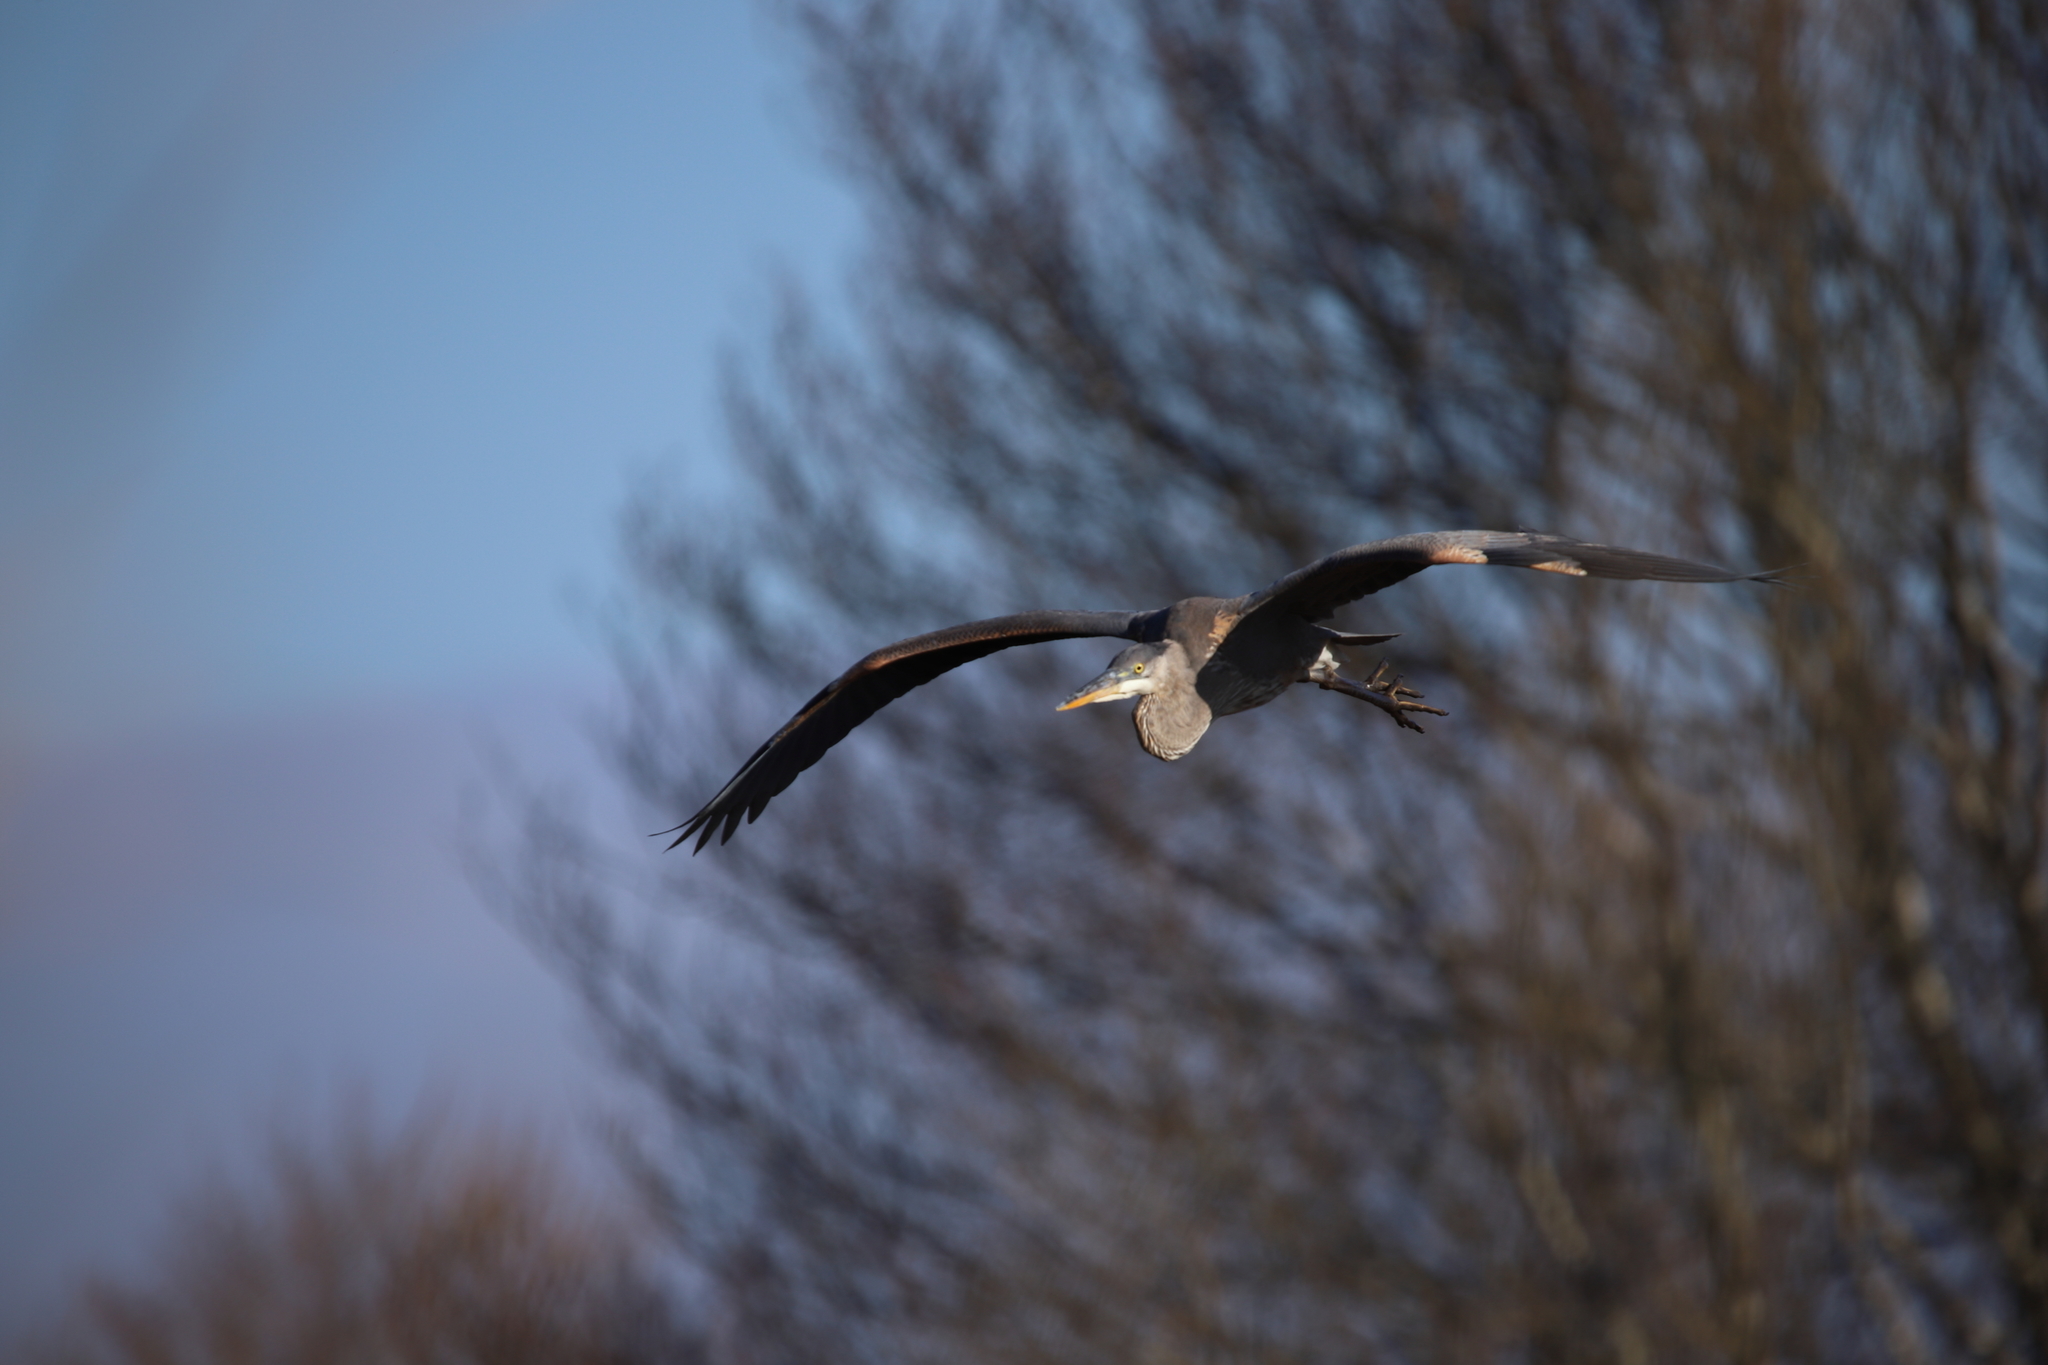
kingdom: Animalia
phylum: Chordata
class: Aves
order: Pelecaniformes
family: Ardeidae
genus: Ardea
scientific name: Ardea herodias
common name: Great blue heron
